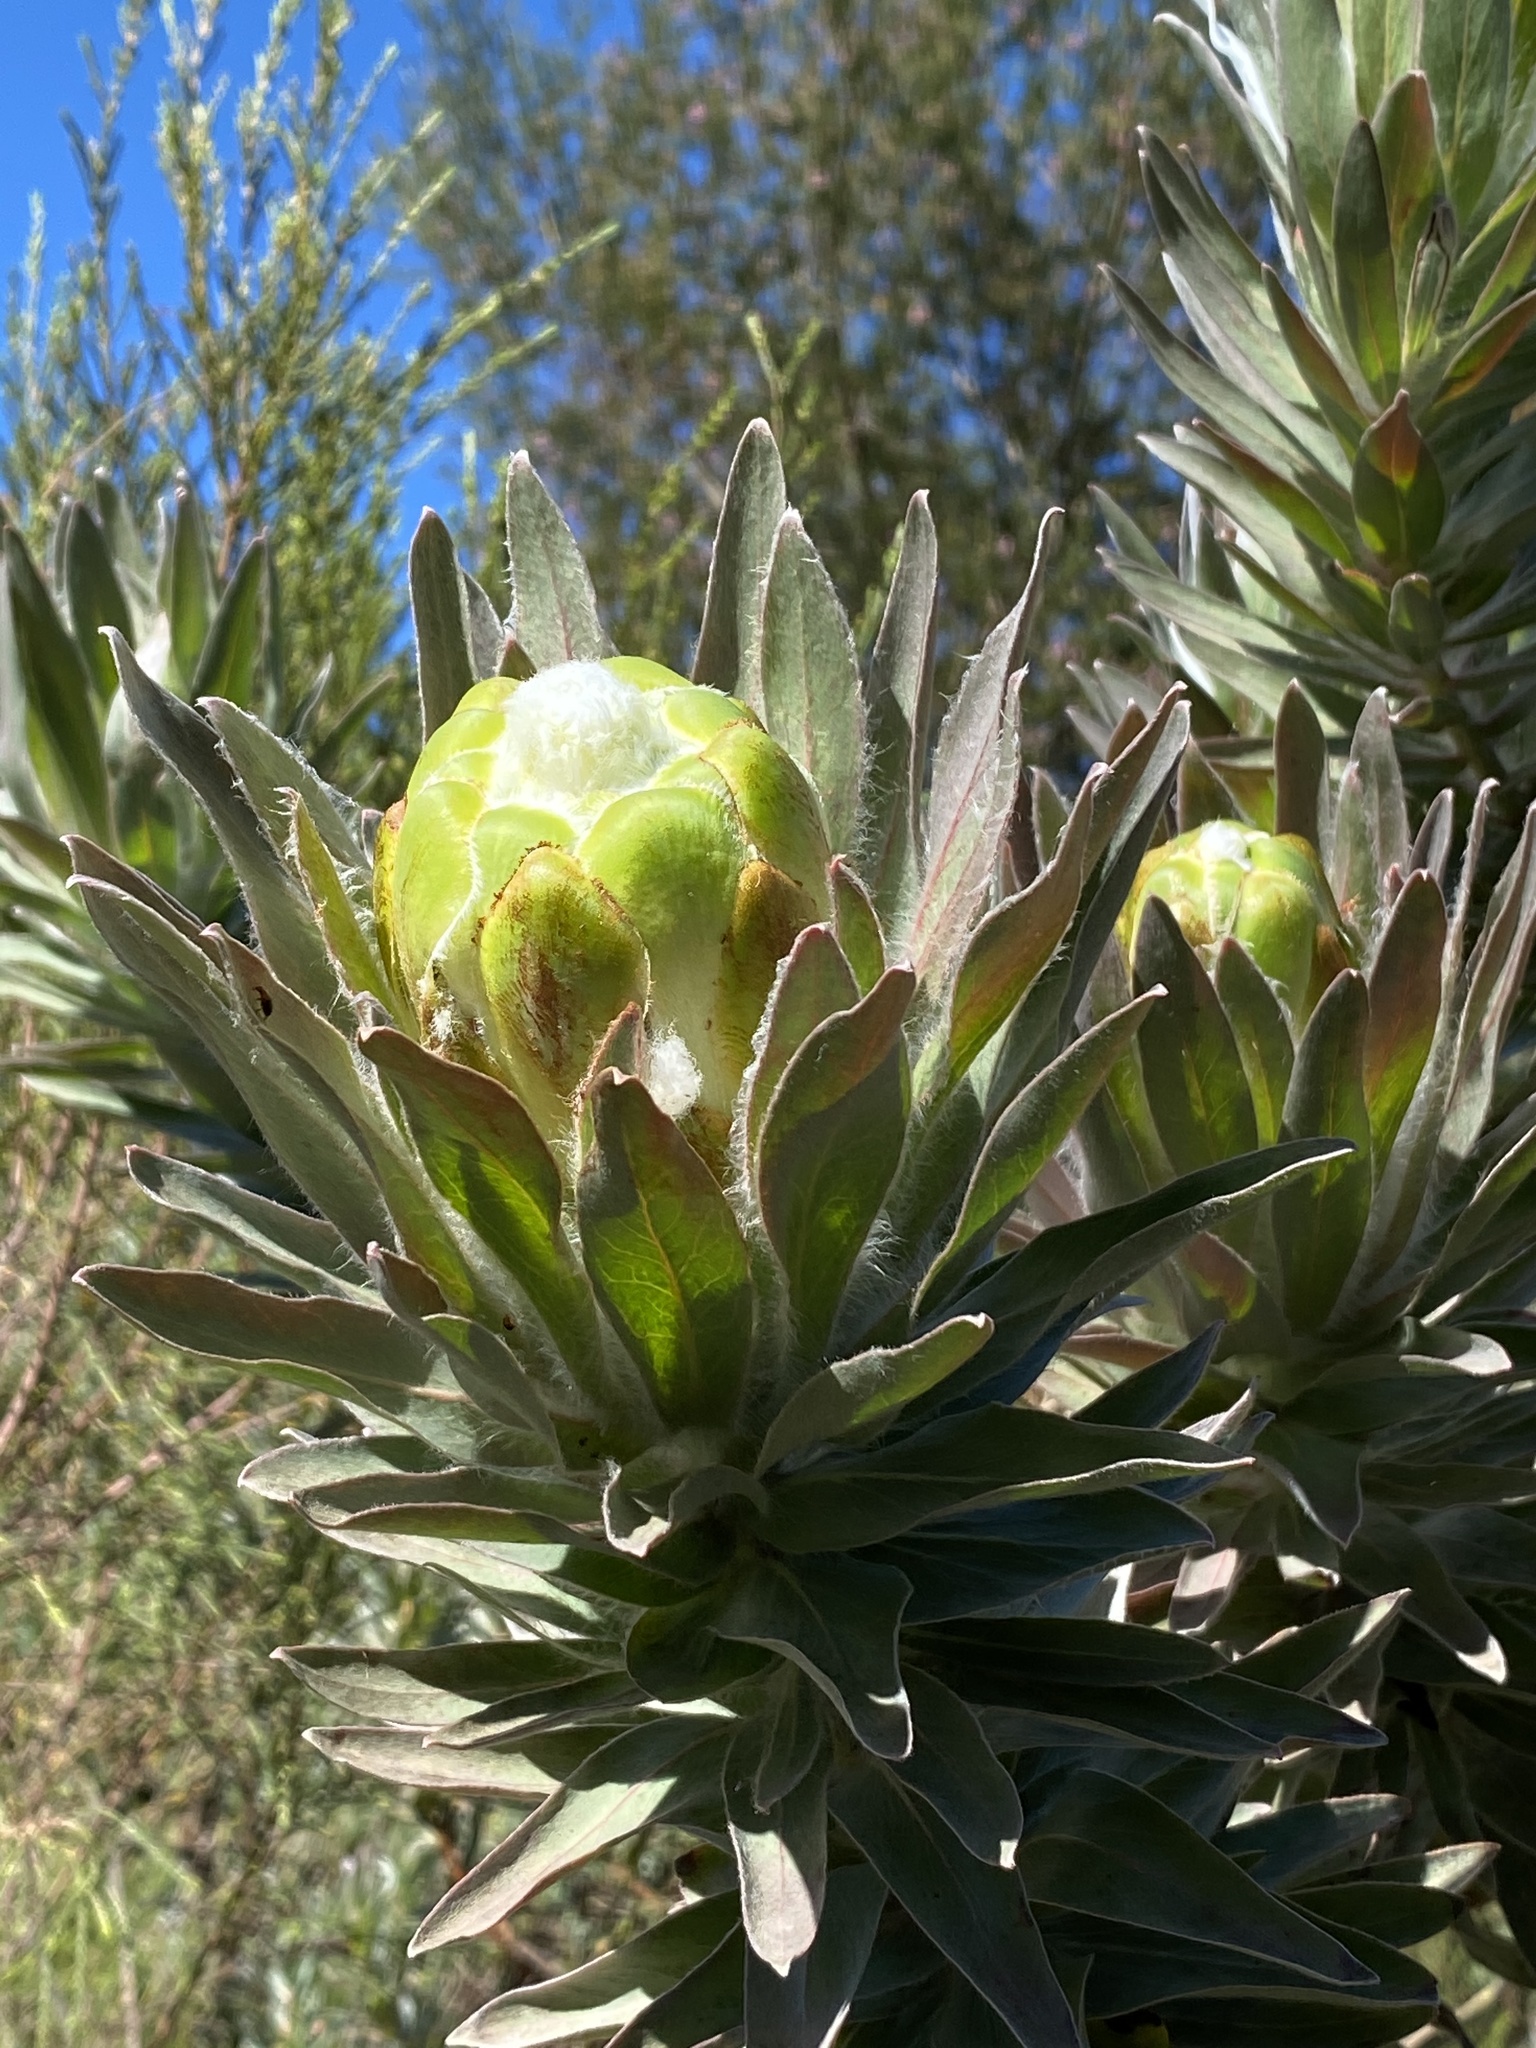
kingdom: Plantae
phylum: Tracheophyta
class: Magnoliopsida
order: Proteales
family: Proteaceae
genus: Protea
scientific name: Protea coronata
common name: Green sugarbush
